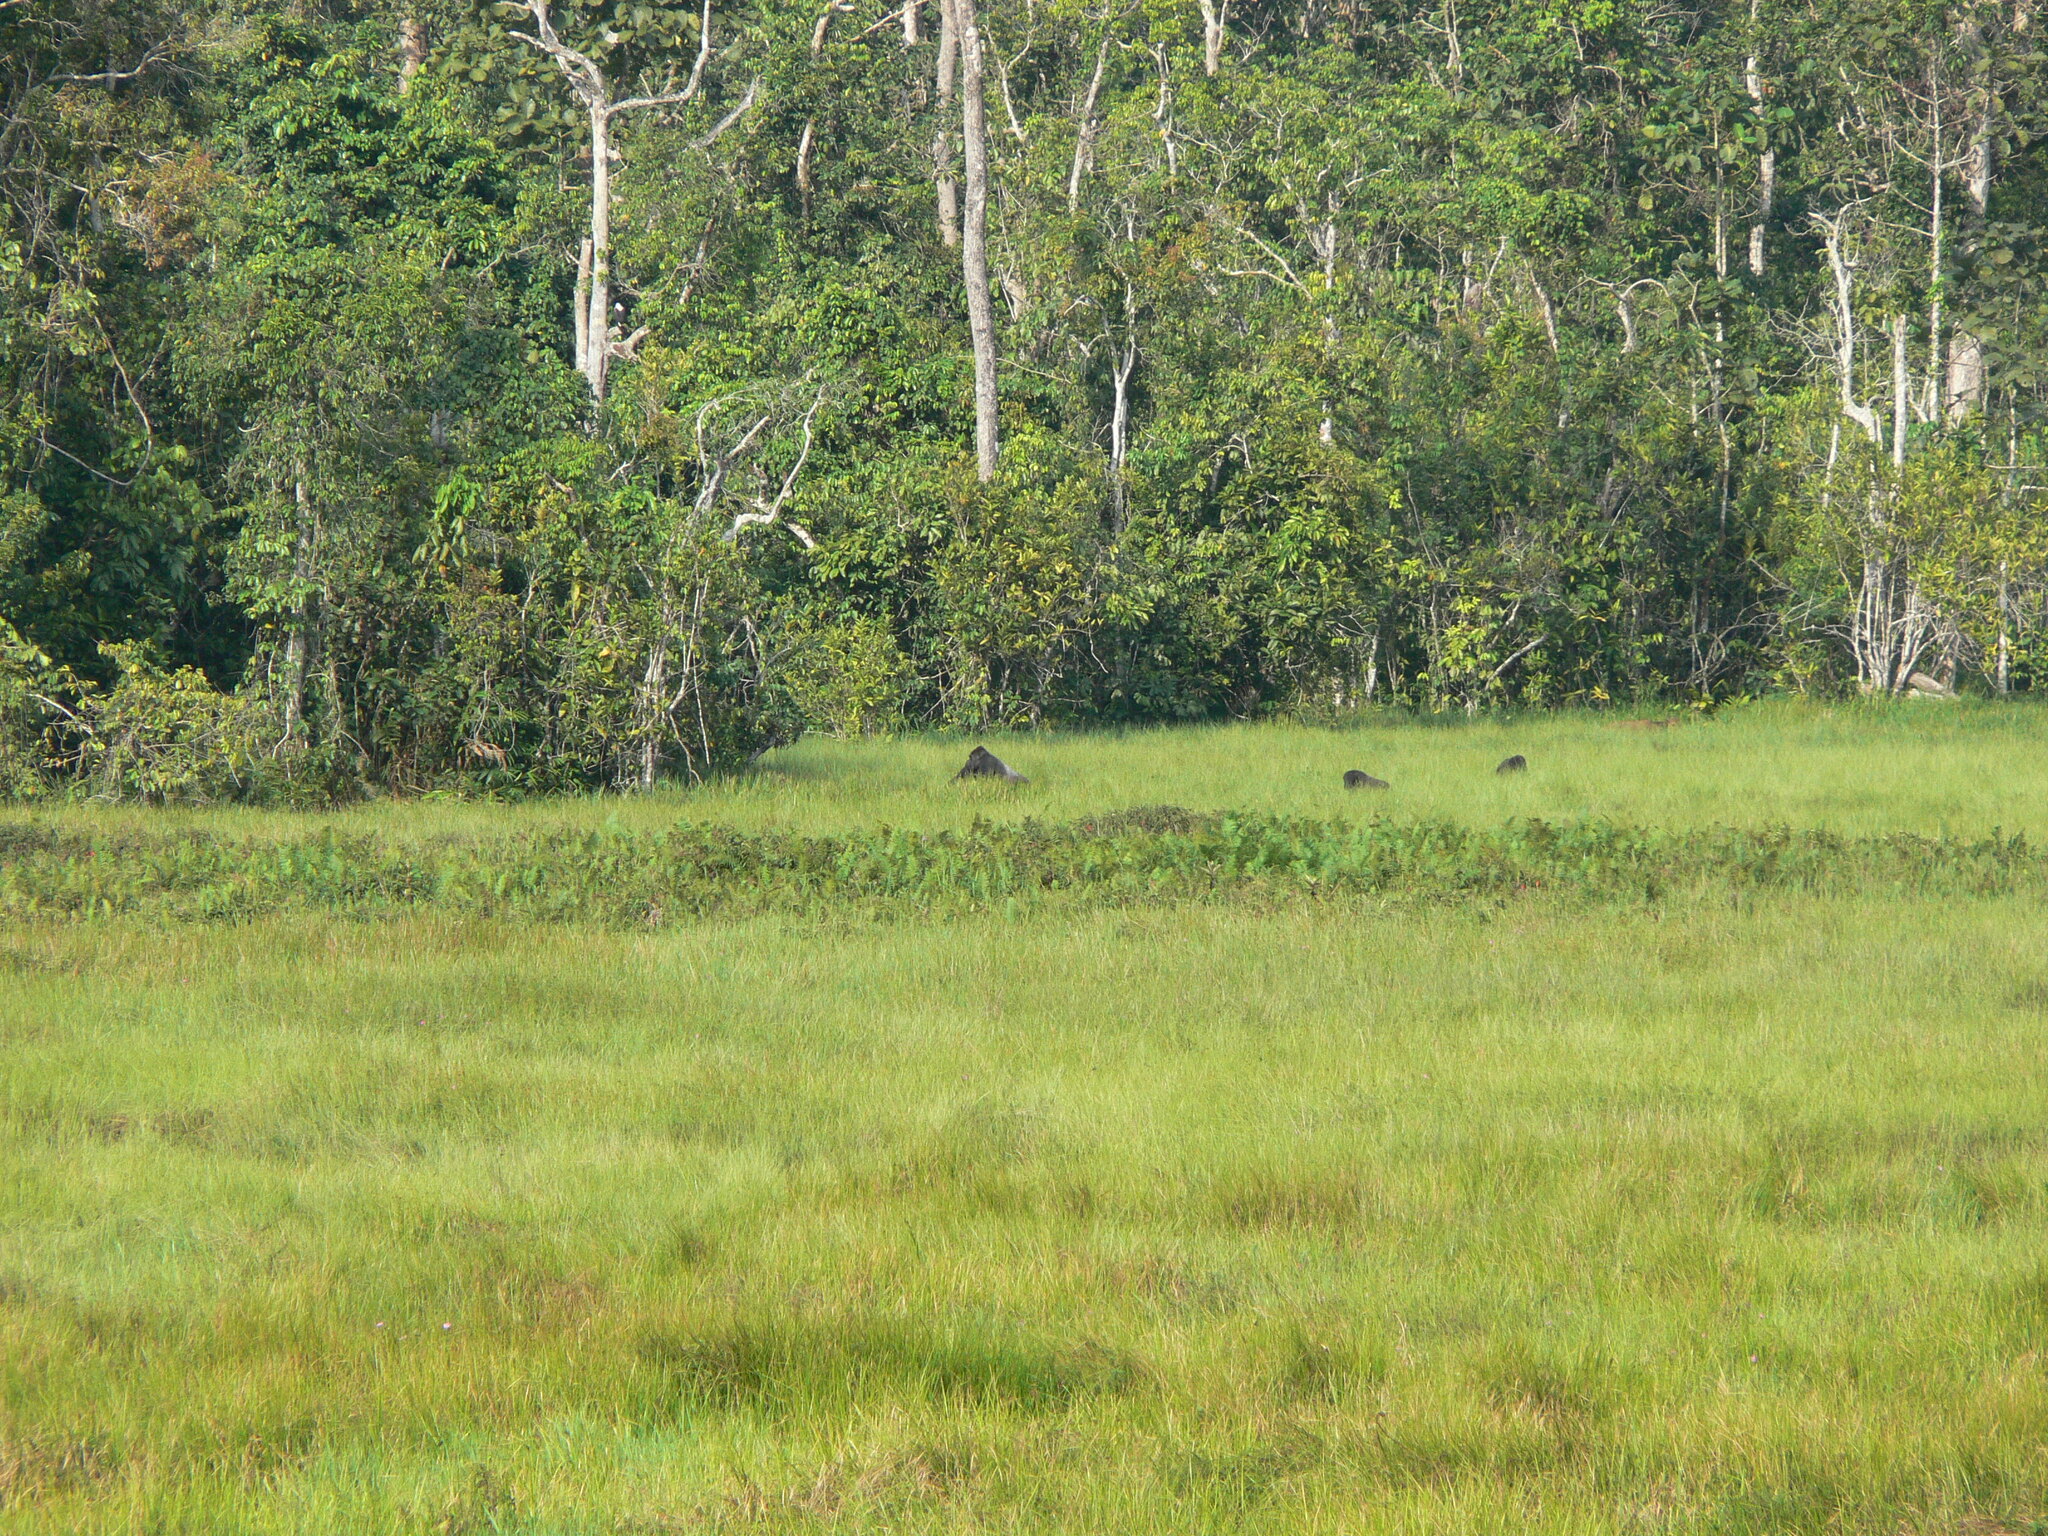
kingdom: Animalia
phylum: Chordata
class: Mammalia
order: Primates
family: Hominidae
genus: Gorilla
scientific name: Gorilla gorilla
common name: Western gorilla
